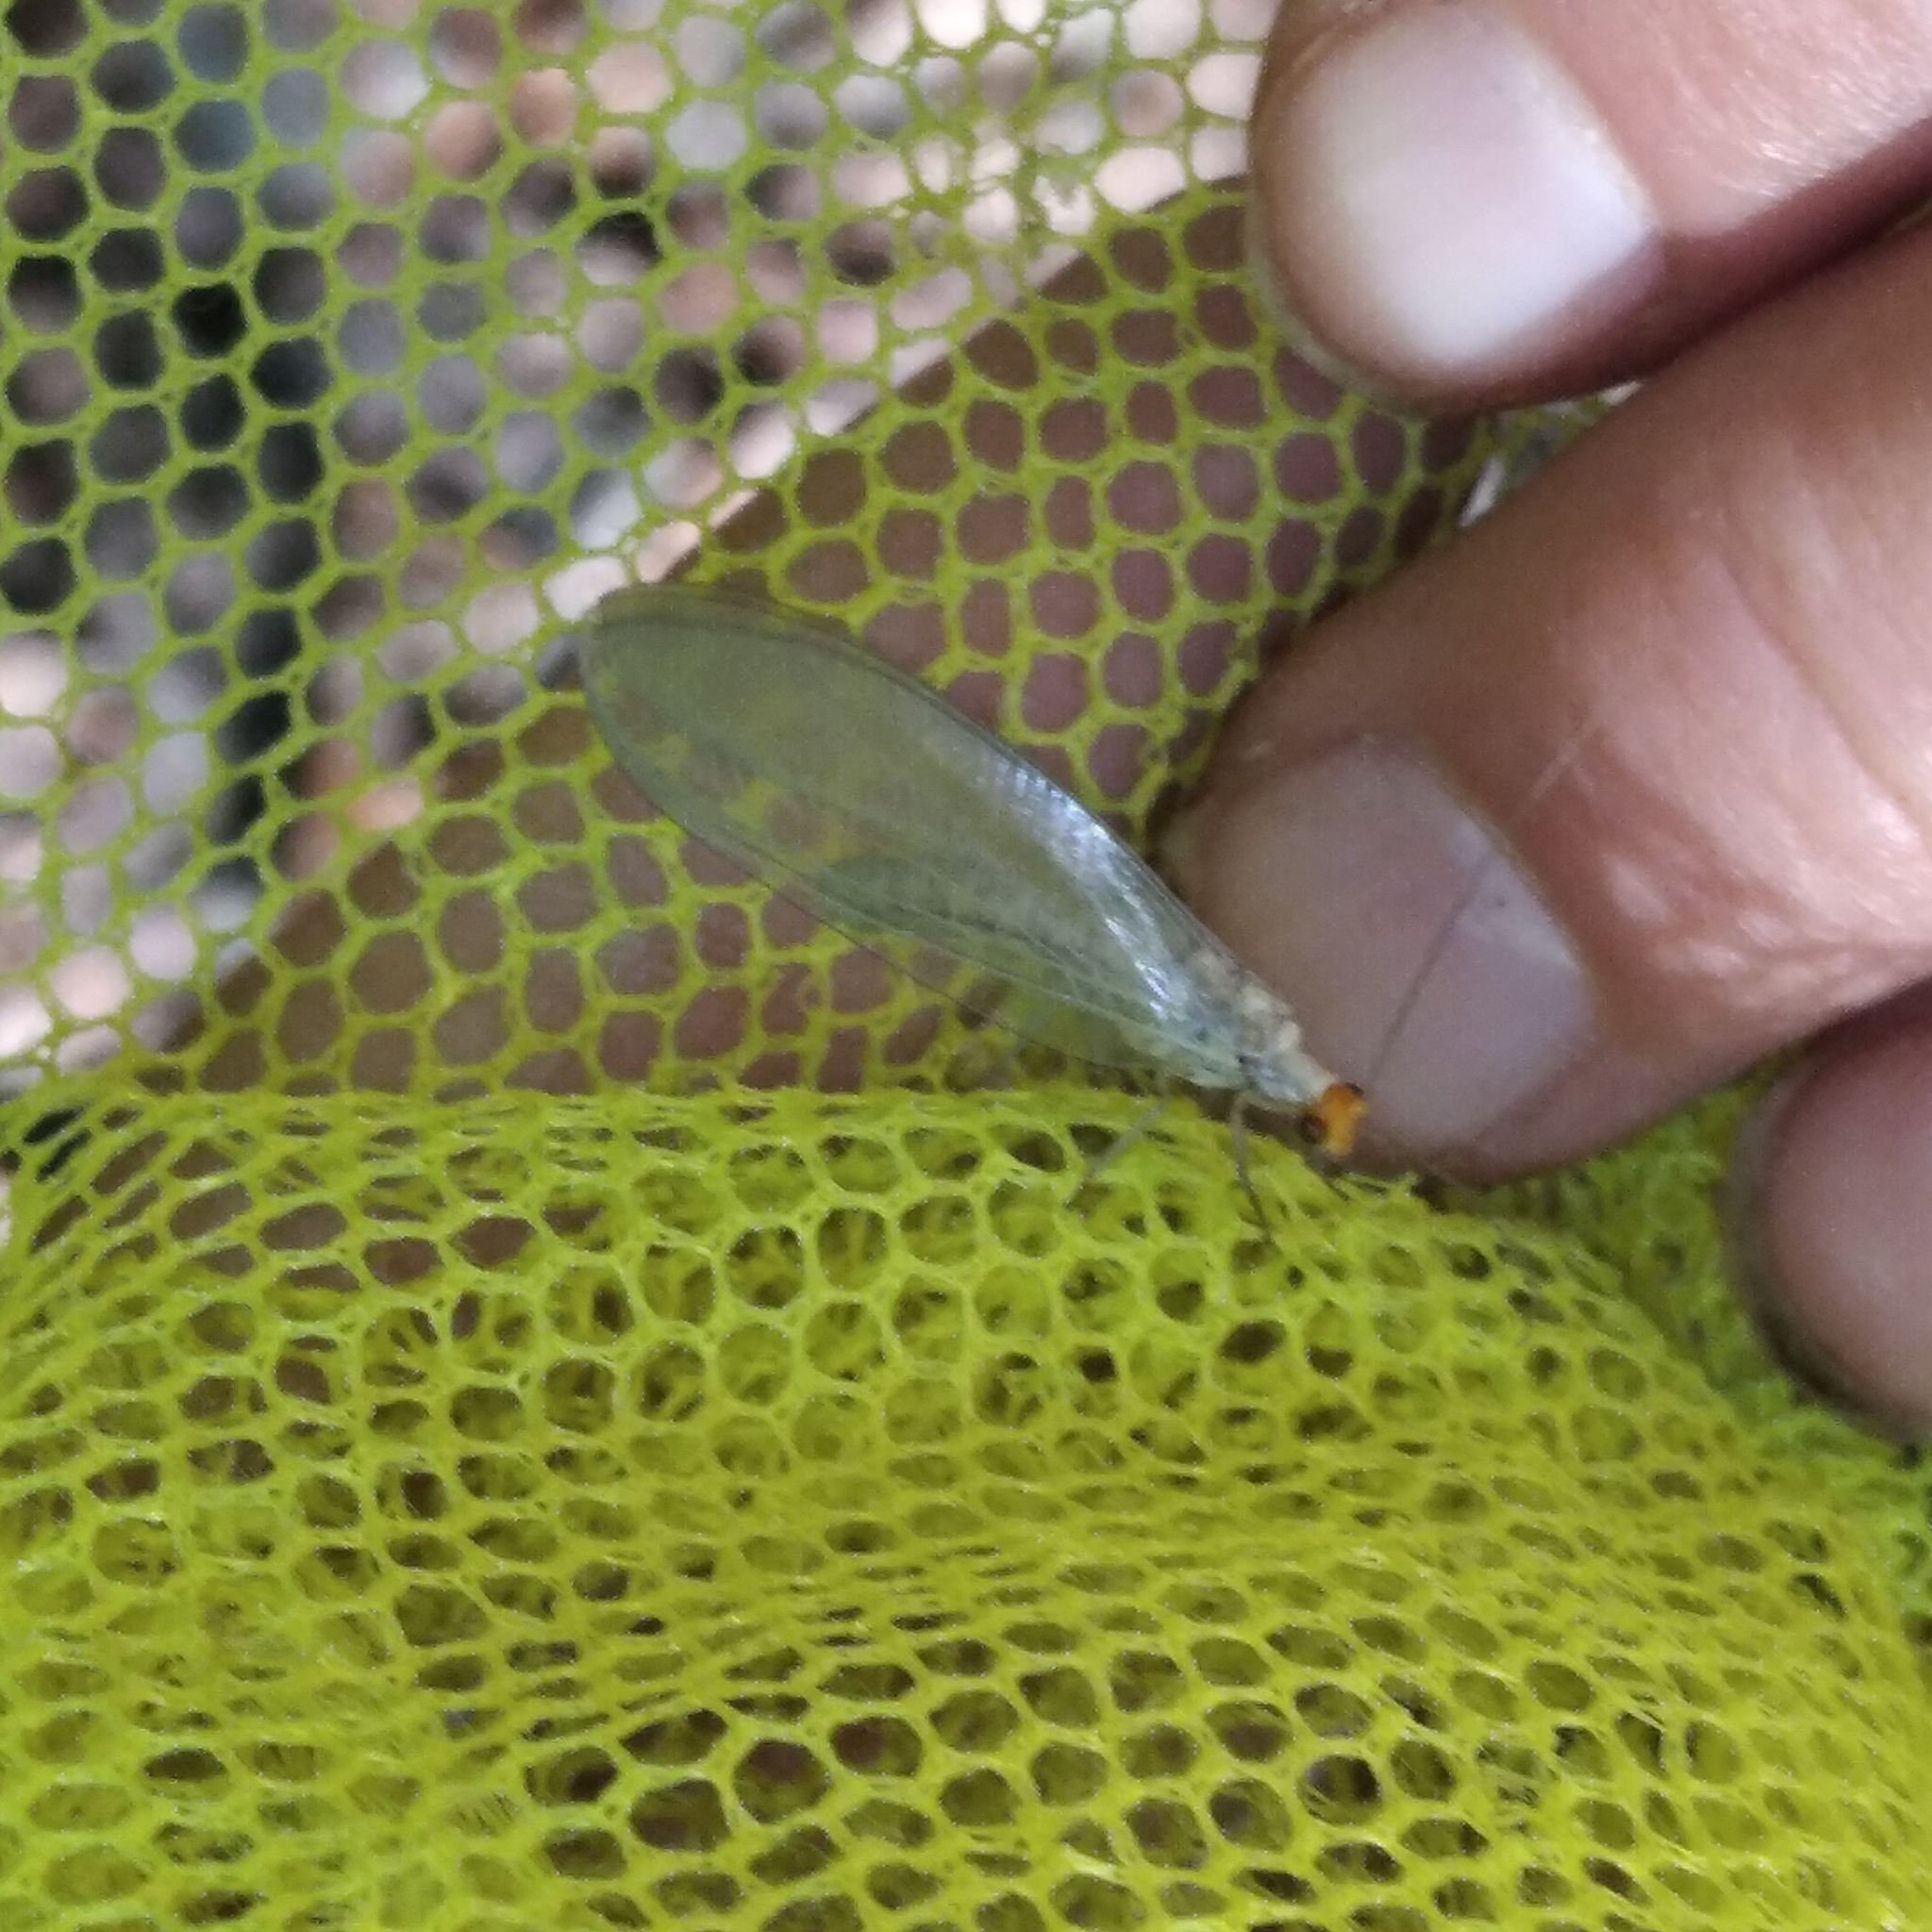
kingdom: Animalia
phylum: Arthropoda
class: Insecta
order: Neuroptera
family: Chrysopidae
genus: Nothochrysa
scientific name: Nothochrysa fulviceps
